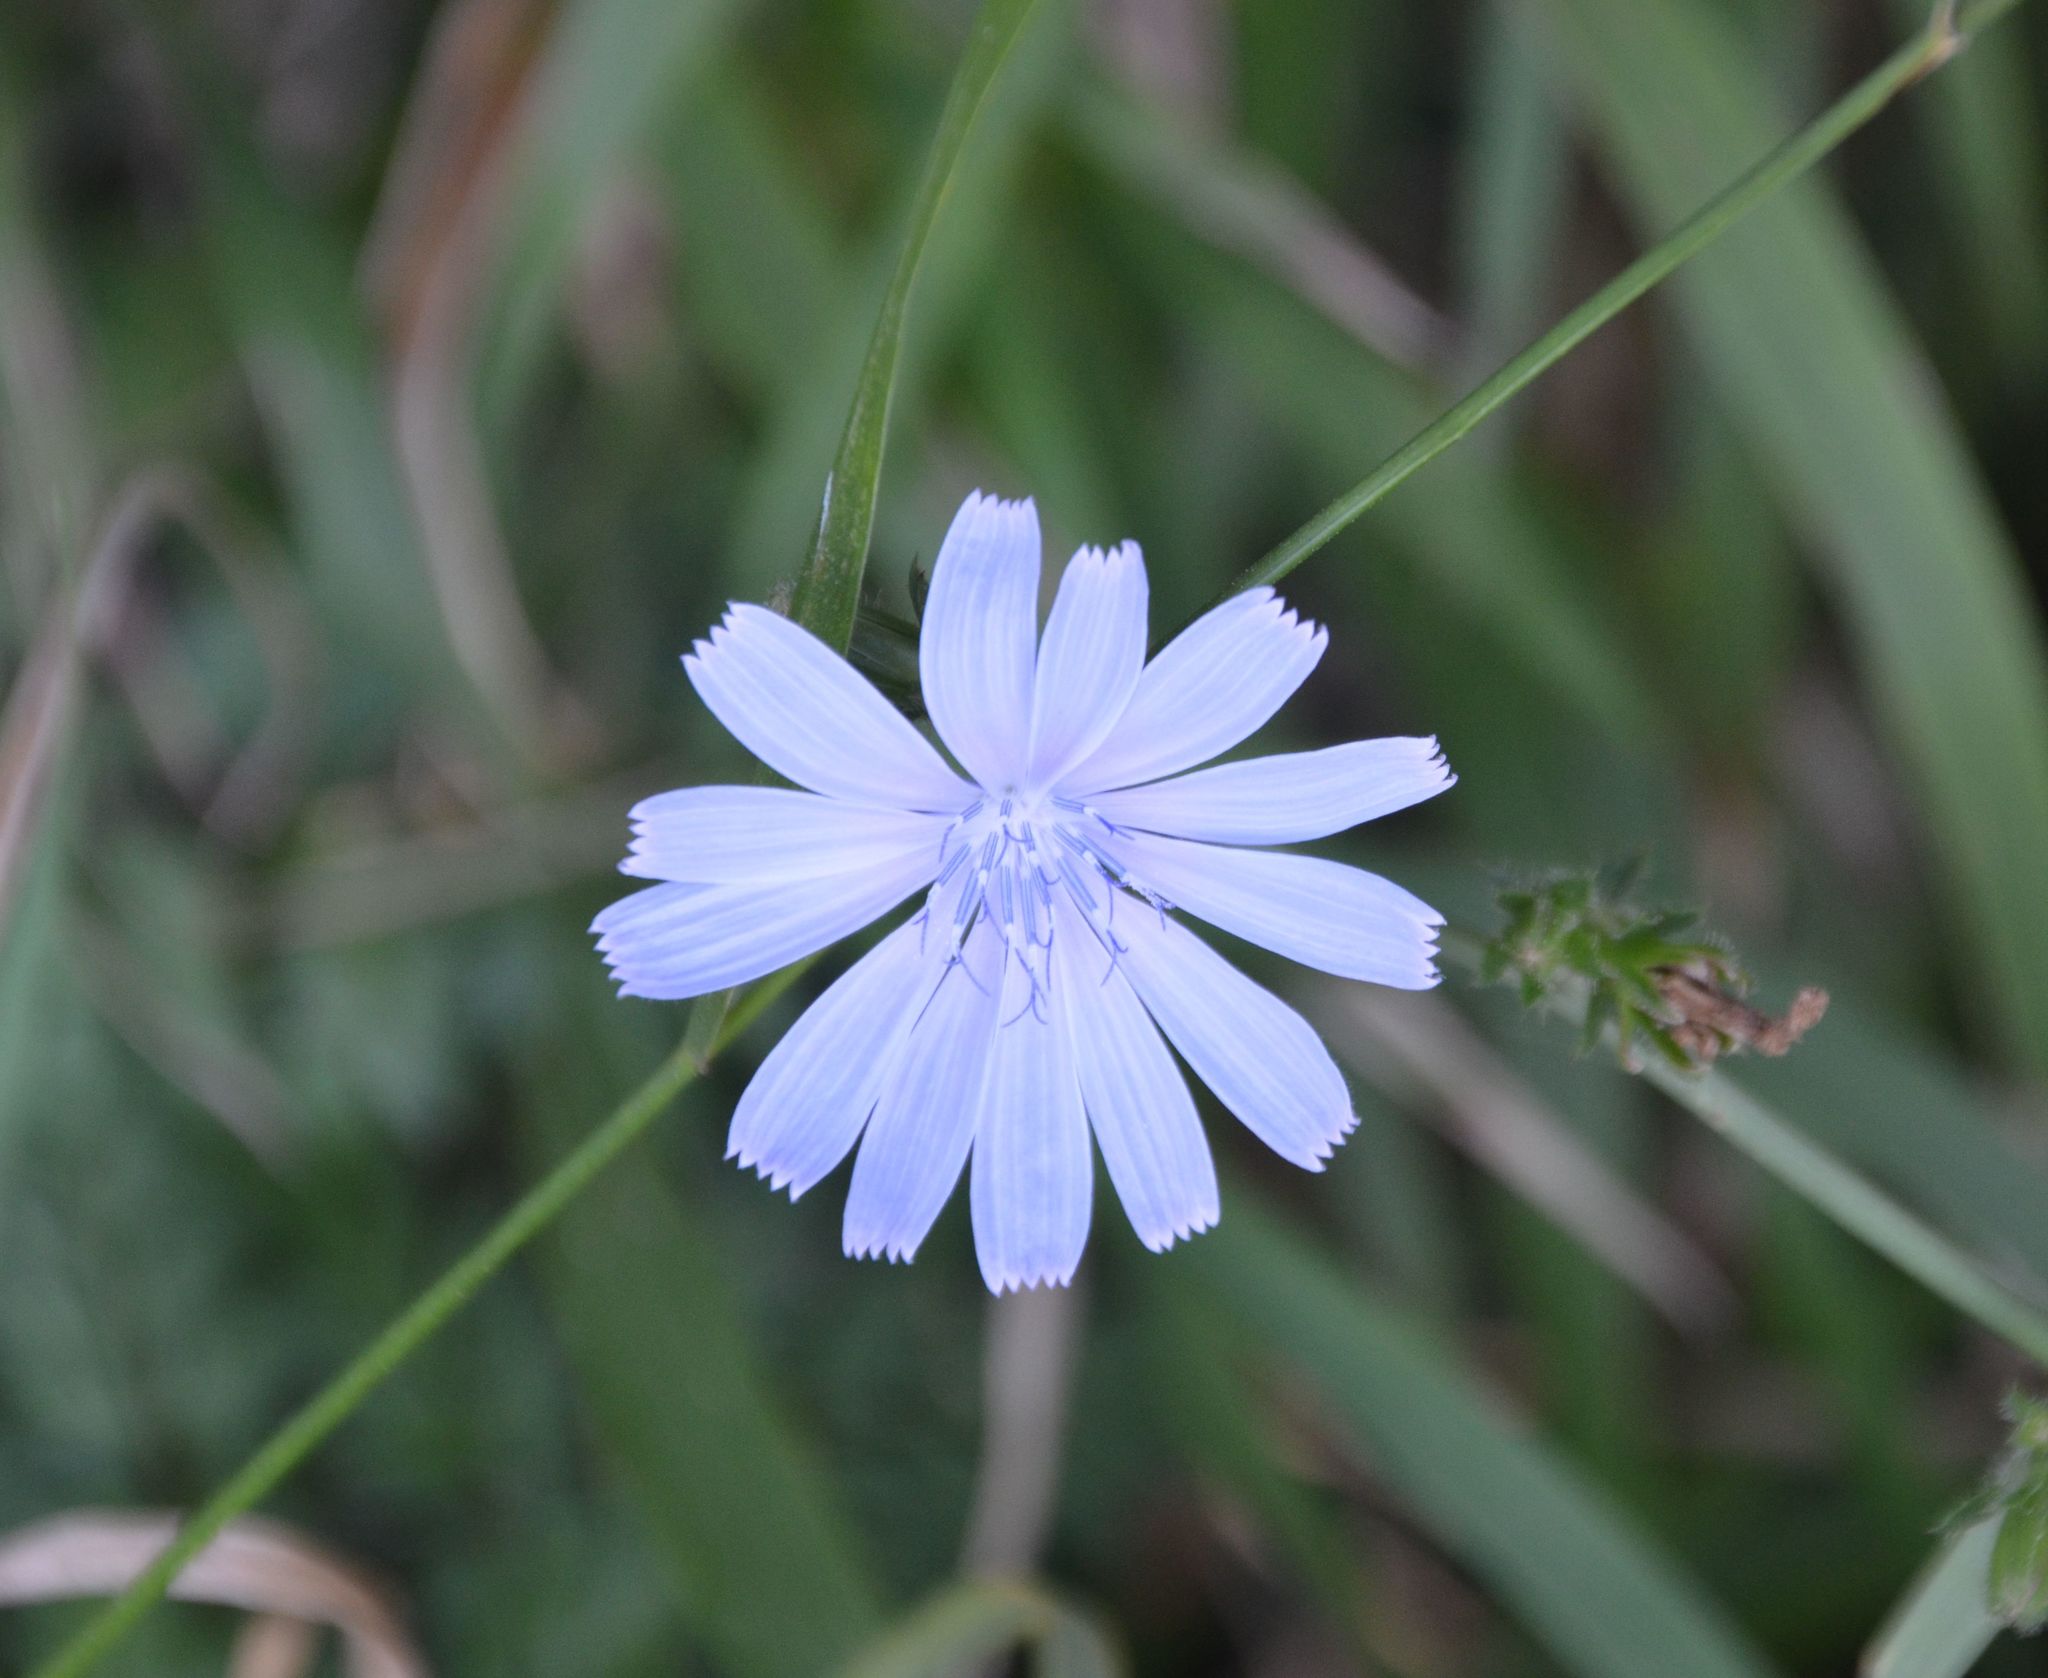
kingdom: Plantae
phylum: Tracheophyta
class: Magnoliopsida
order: Asterales
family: Asteraceae
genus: Cichorium
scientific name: Cichorium intybus
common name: Chicory
